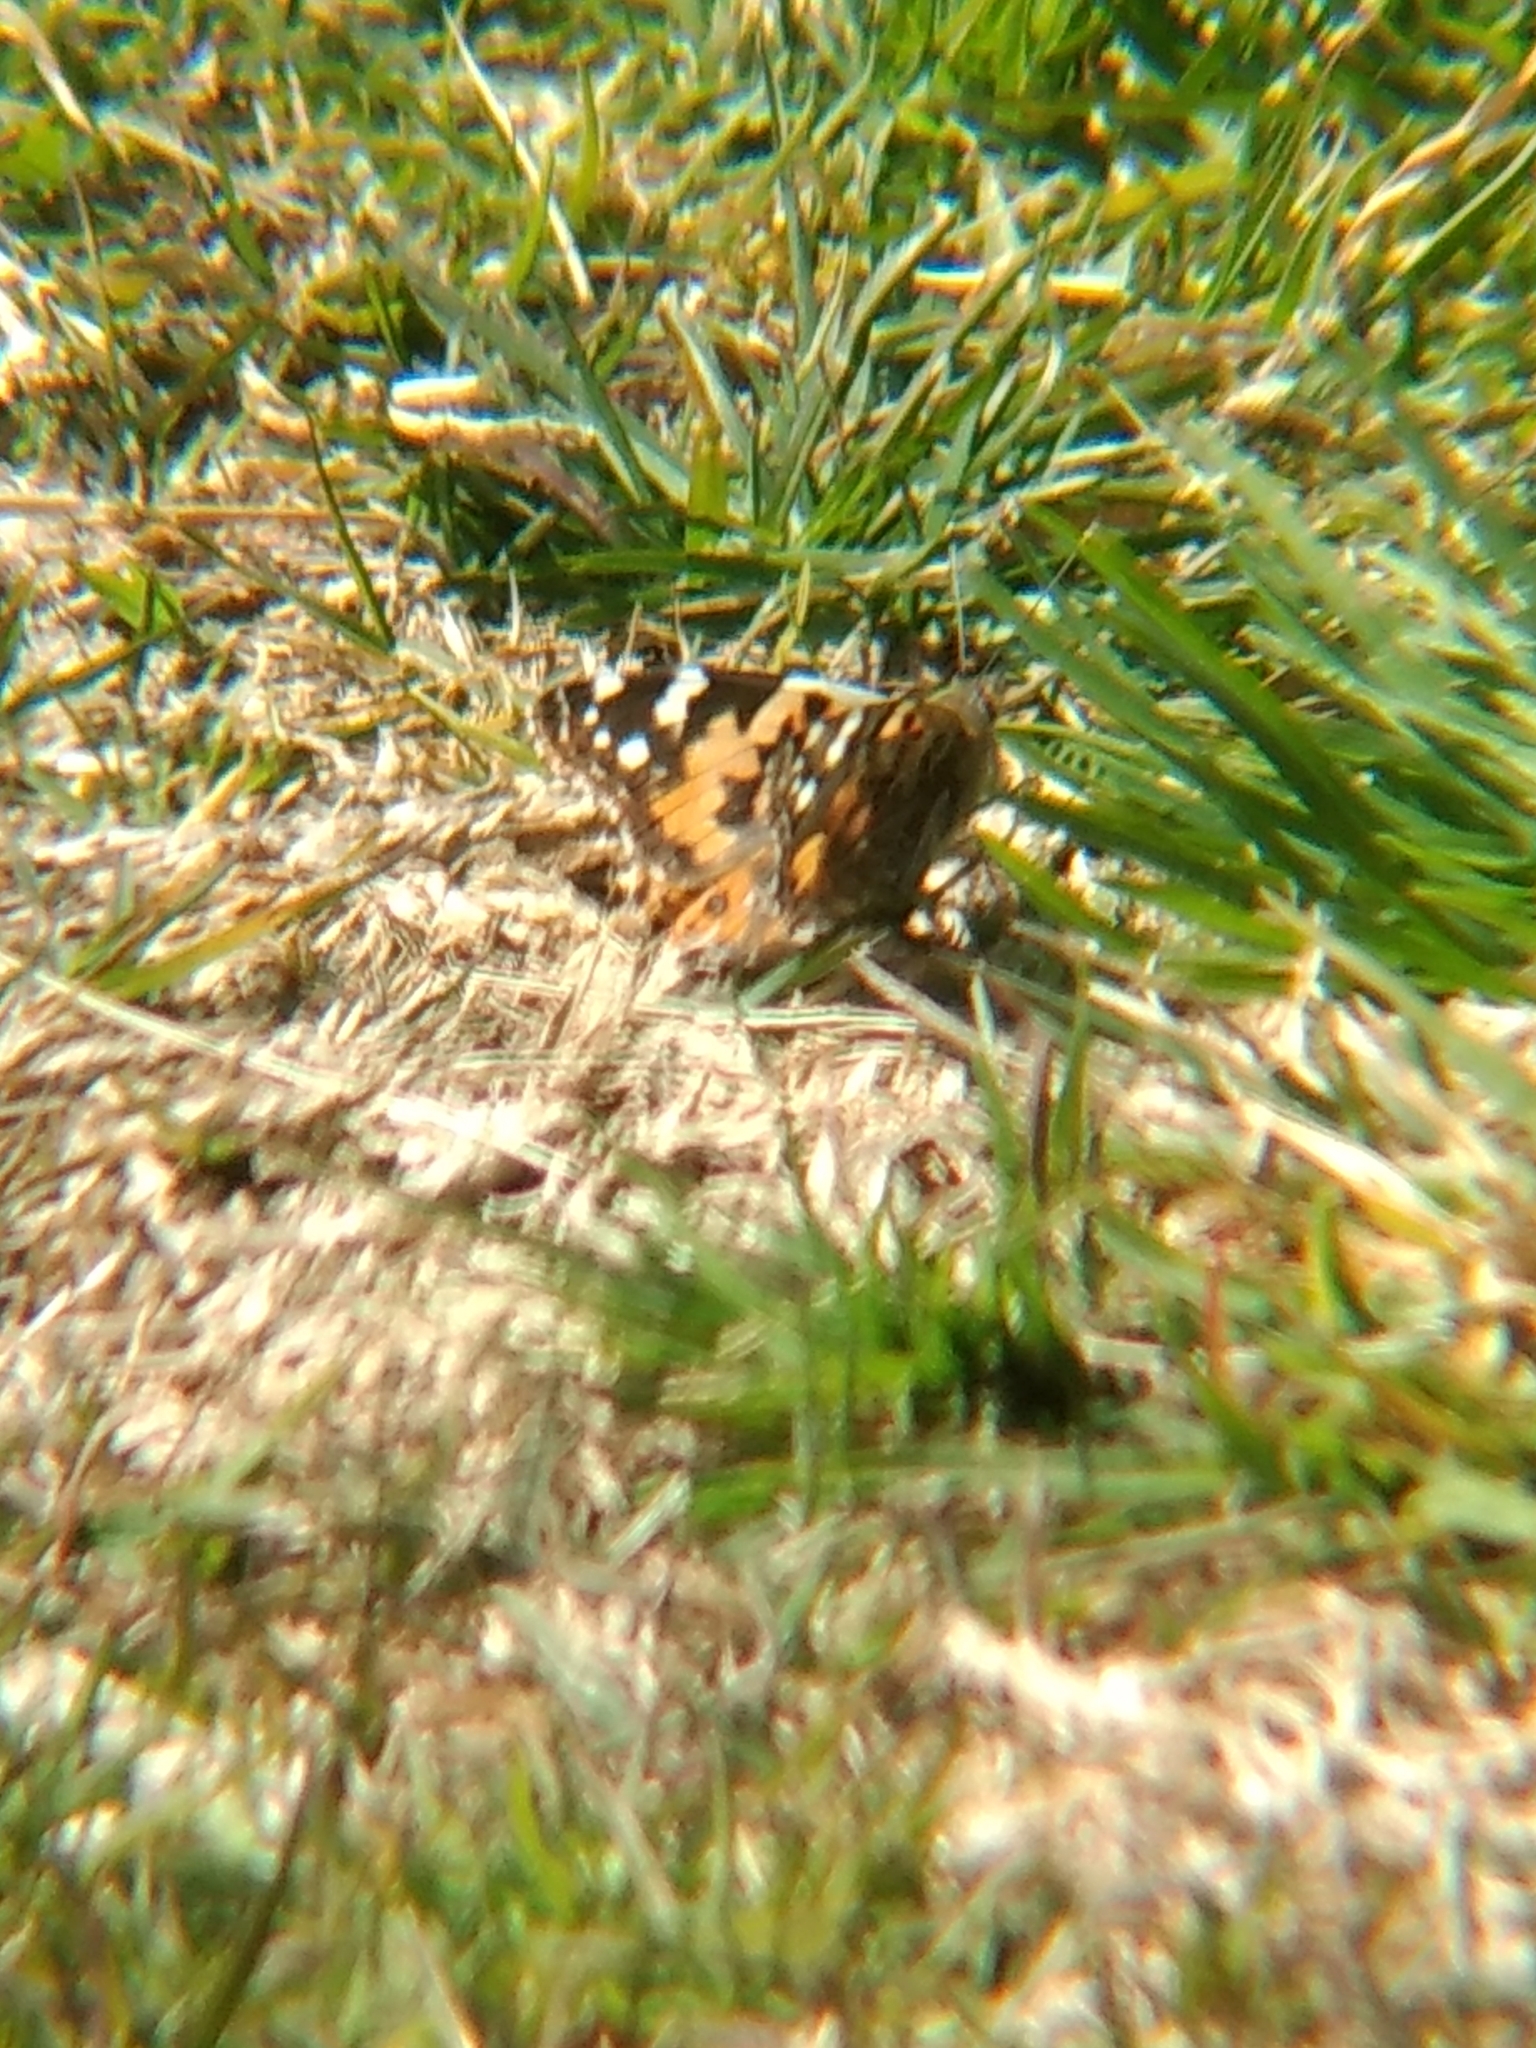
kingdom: Animalia
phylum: Arthropoda
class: Insecta
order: Lepidoptera
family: Nymphalidae
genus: Vanessa
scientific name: Vanessa cardui
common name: Painted lady
